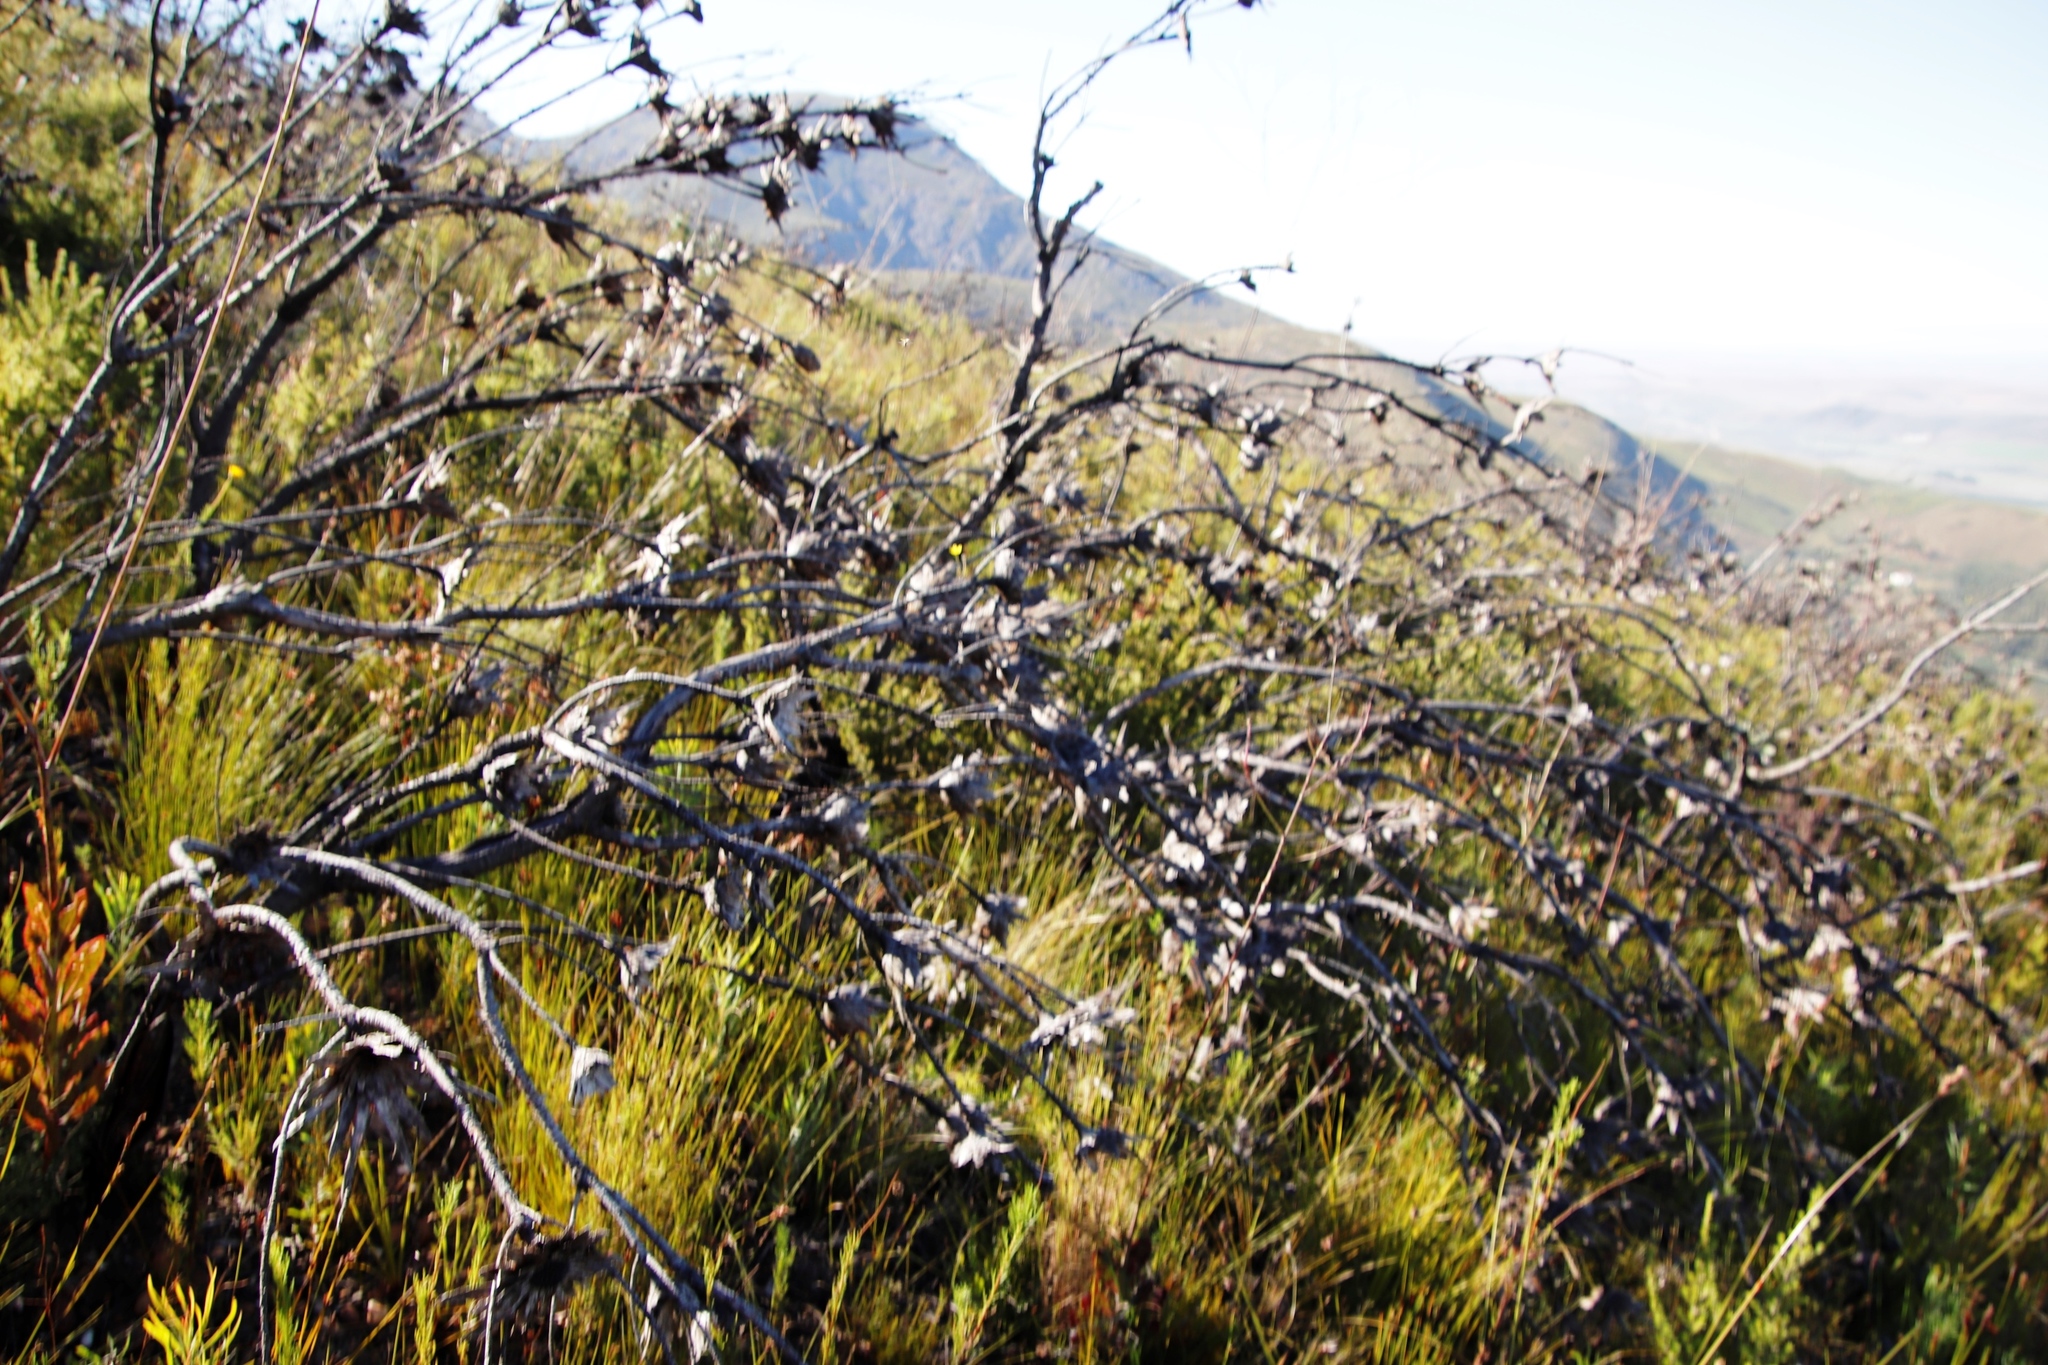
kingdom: Plantae
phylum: Tracheophyta
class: Magnoliopsida
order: Proteales
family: Proteaceae
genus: Protea
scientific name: Protea repens
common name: Sugarbush
